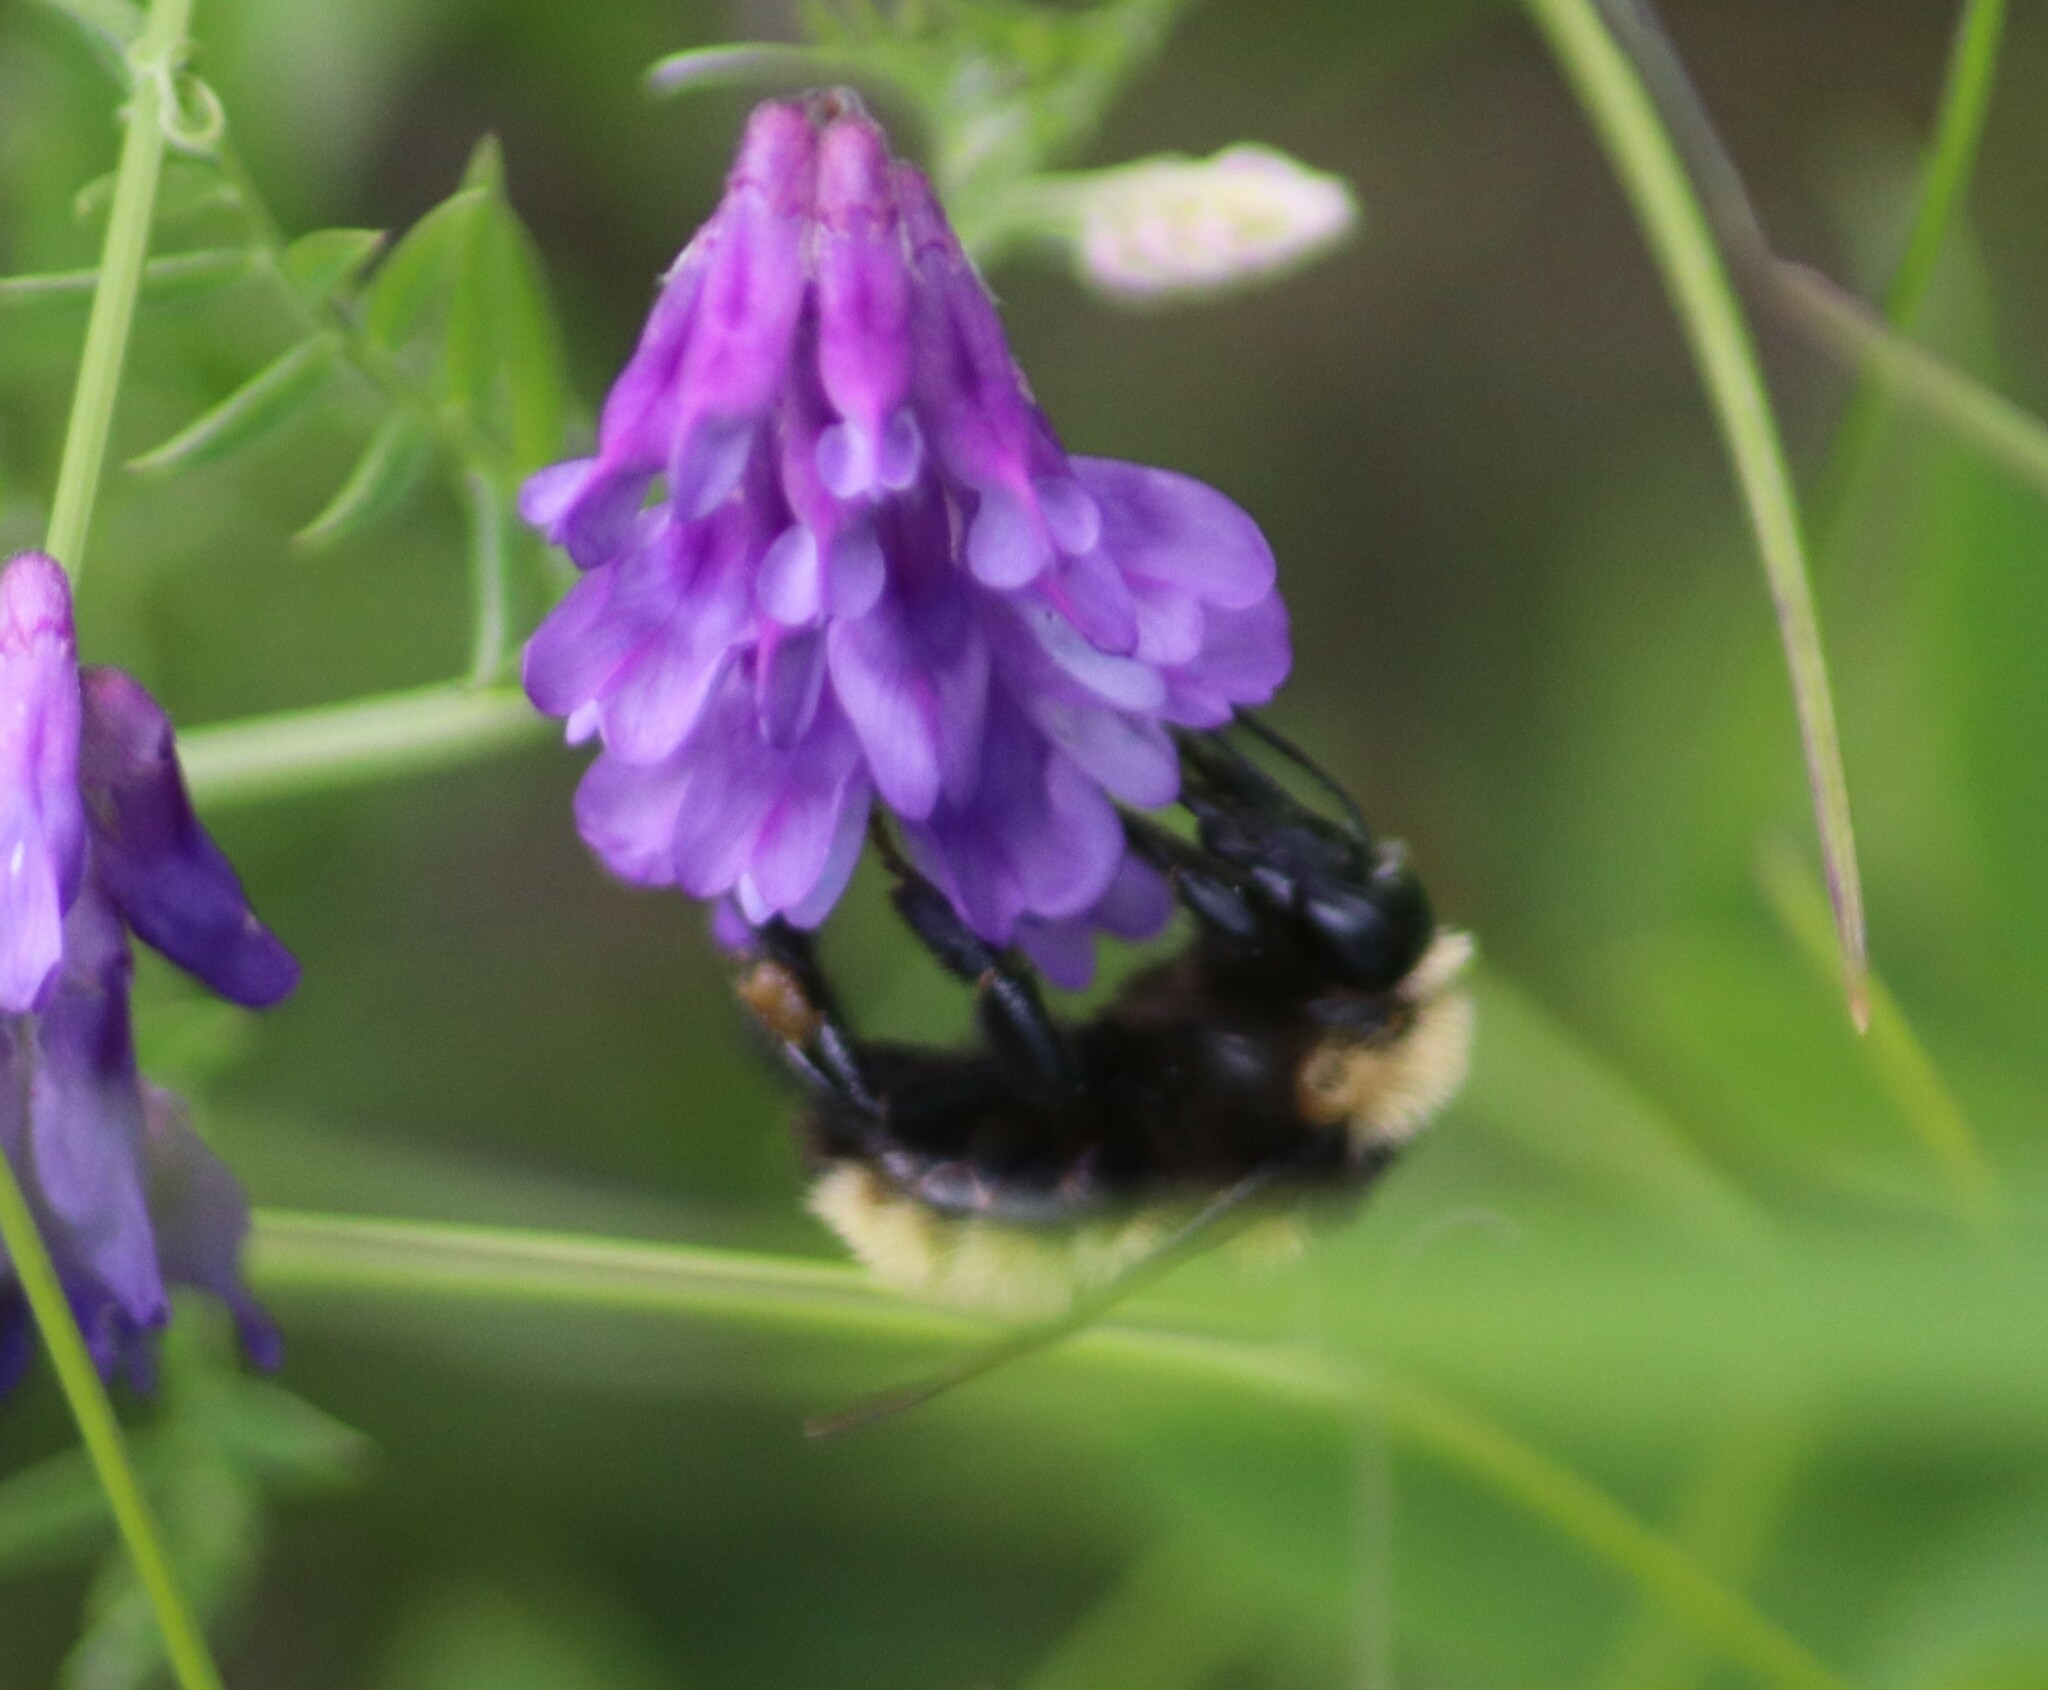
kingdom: Animalia
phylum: Arthropoda
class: Insecta
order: Hymenoptera
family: Apidae
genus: Bombus
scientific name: Bombus borealis
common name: Northern amber bumble bee
